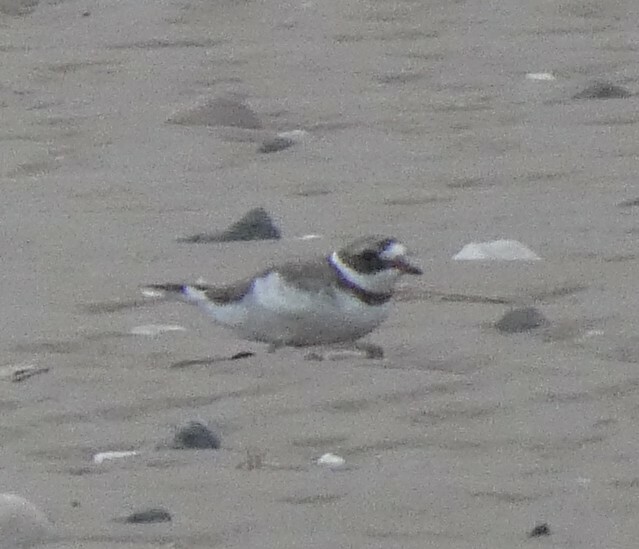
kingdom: Animalia
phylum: Chordata
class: Aves
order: Charadriiformes
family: Charadriidae
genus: Charadrius
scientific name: Charadrius hiaticula
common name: Common ringed plover
